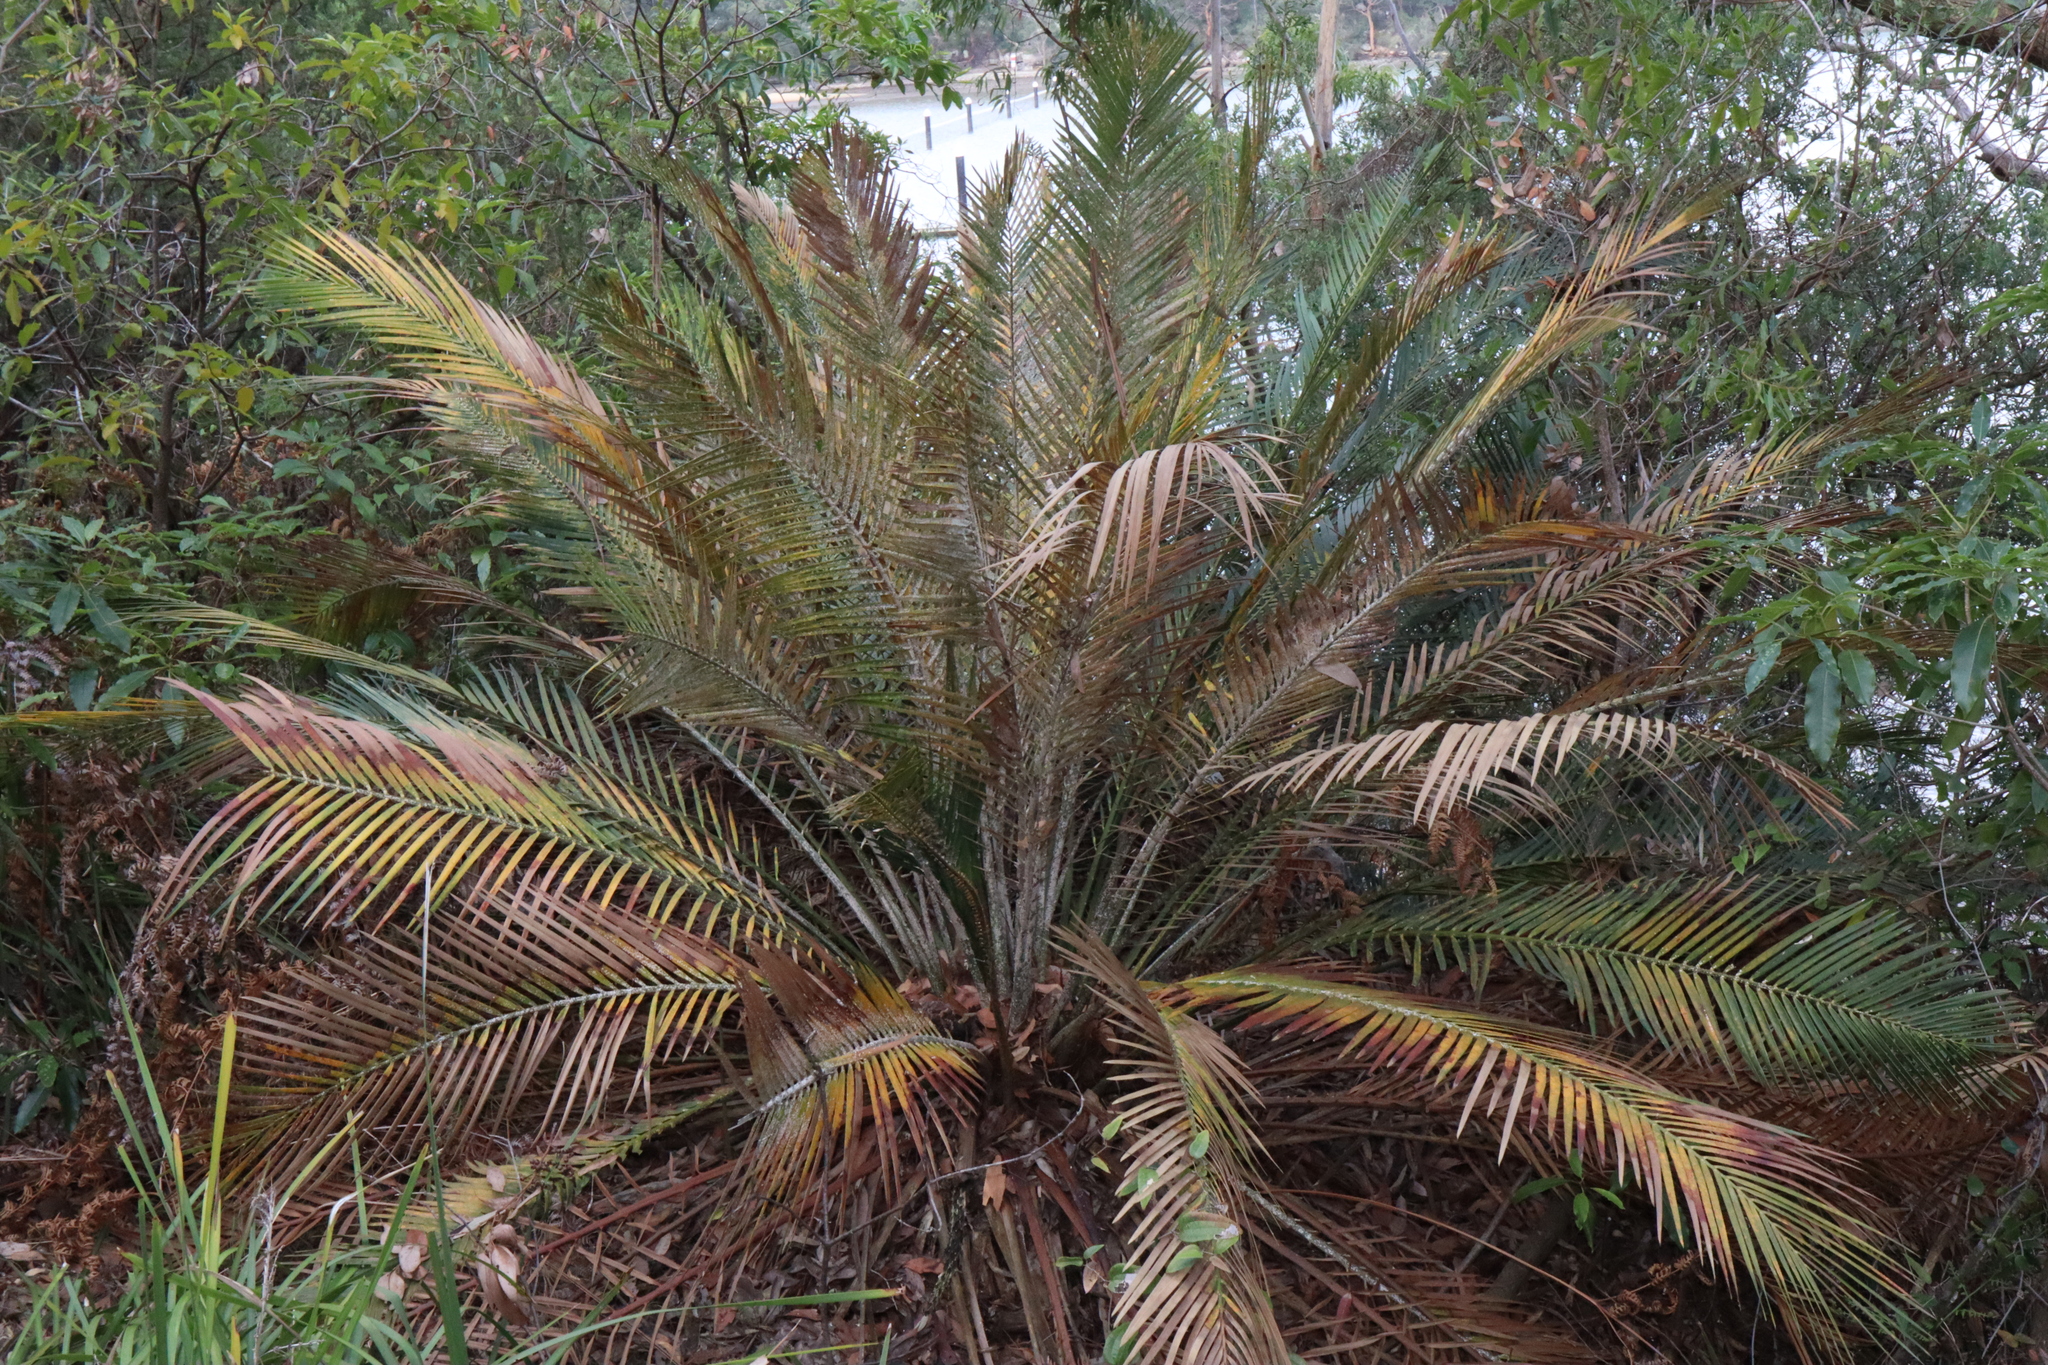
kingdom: Plantae
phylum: Tracheophyta
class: Cycadopsida
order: Cycadales
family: Zamiaceae
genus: Macrozamia
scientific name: Macrozamia communis
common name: Burrawong
